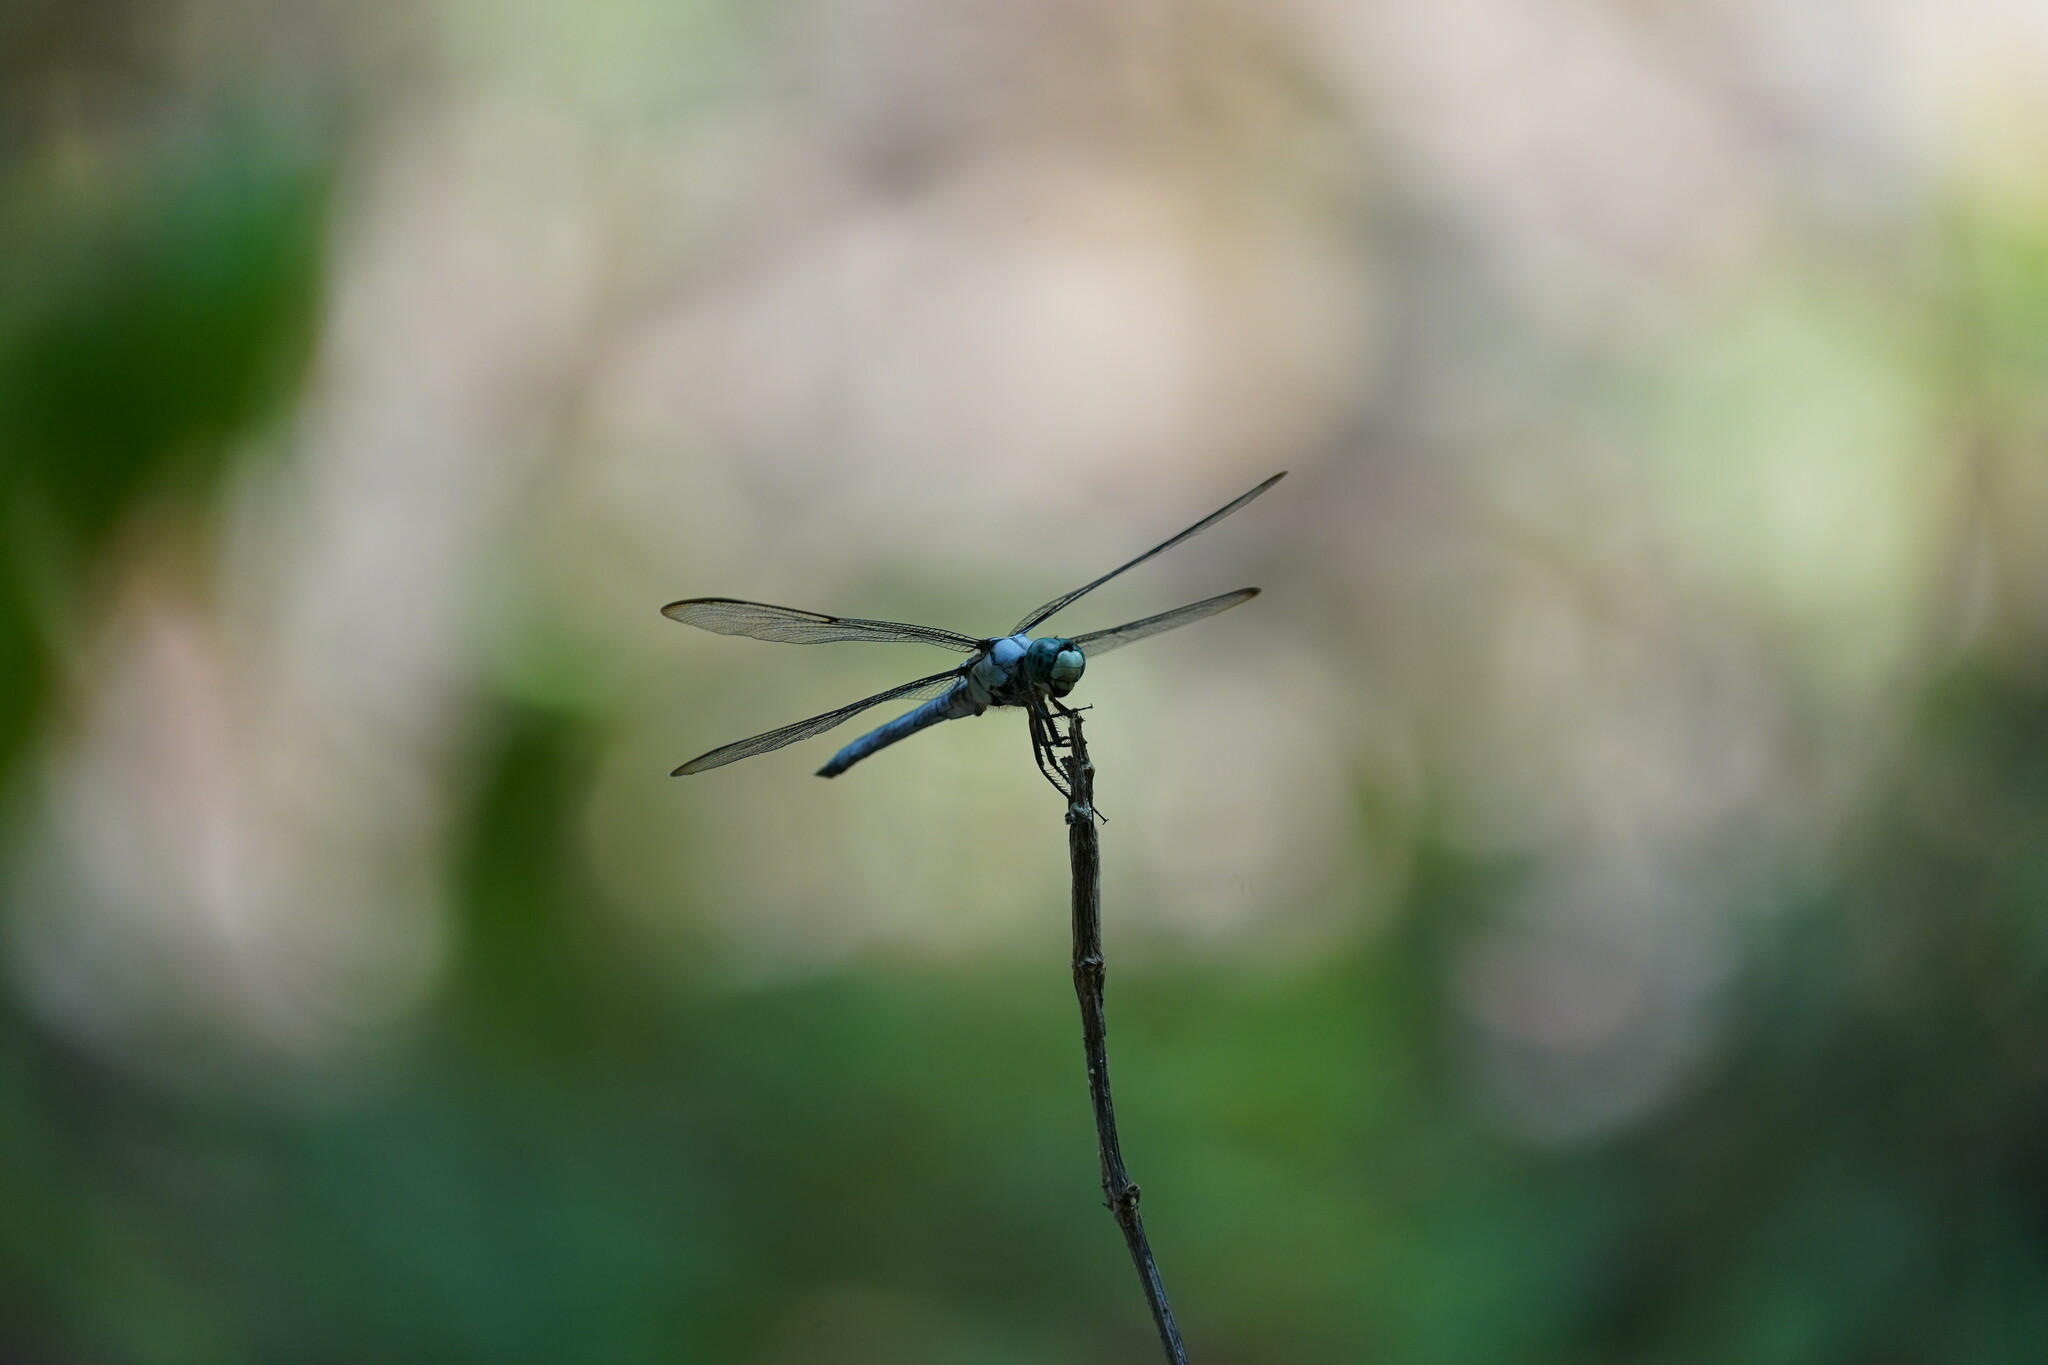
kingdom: Animalia
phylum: Arthropoda
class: Insecta
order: Odonata
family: Libellulidae
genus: Libellula
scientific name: Libellula vibrans
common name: Great blue skimmer
